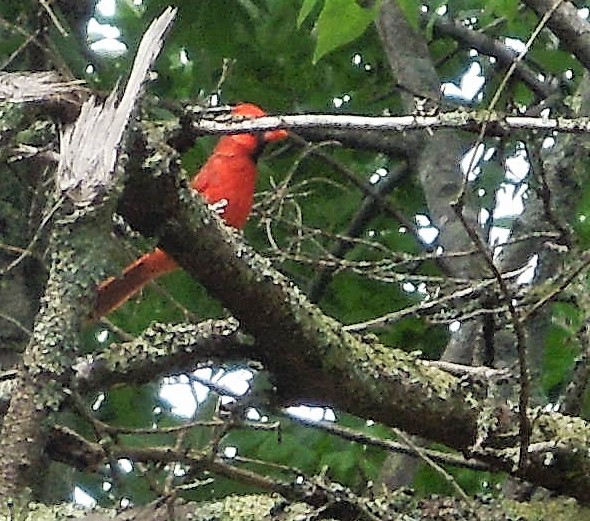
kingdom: Animalia
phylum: Chordata
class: Aves
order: Passeriformes
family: Cardinalidae
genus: Cardinalis
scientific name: Cardinalis cardinalis
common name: Northern cardinal
